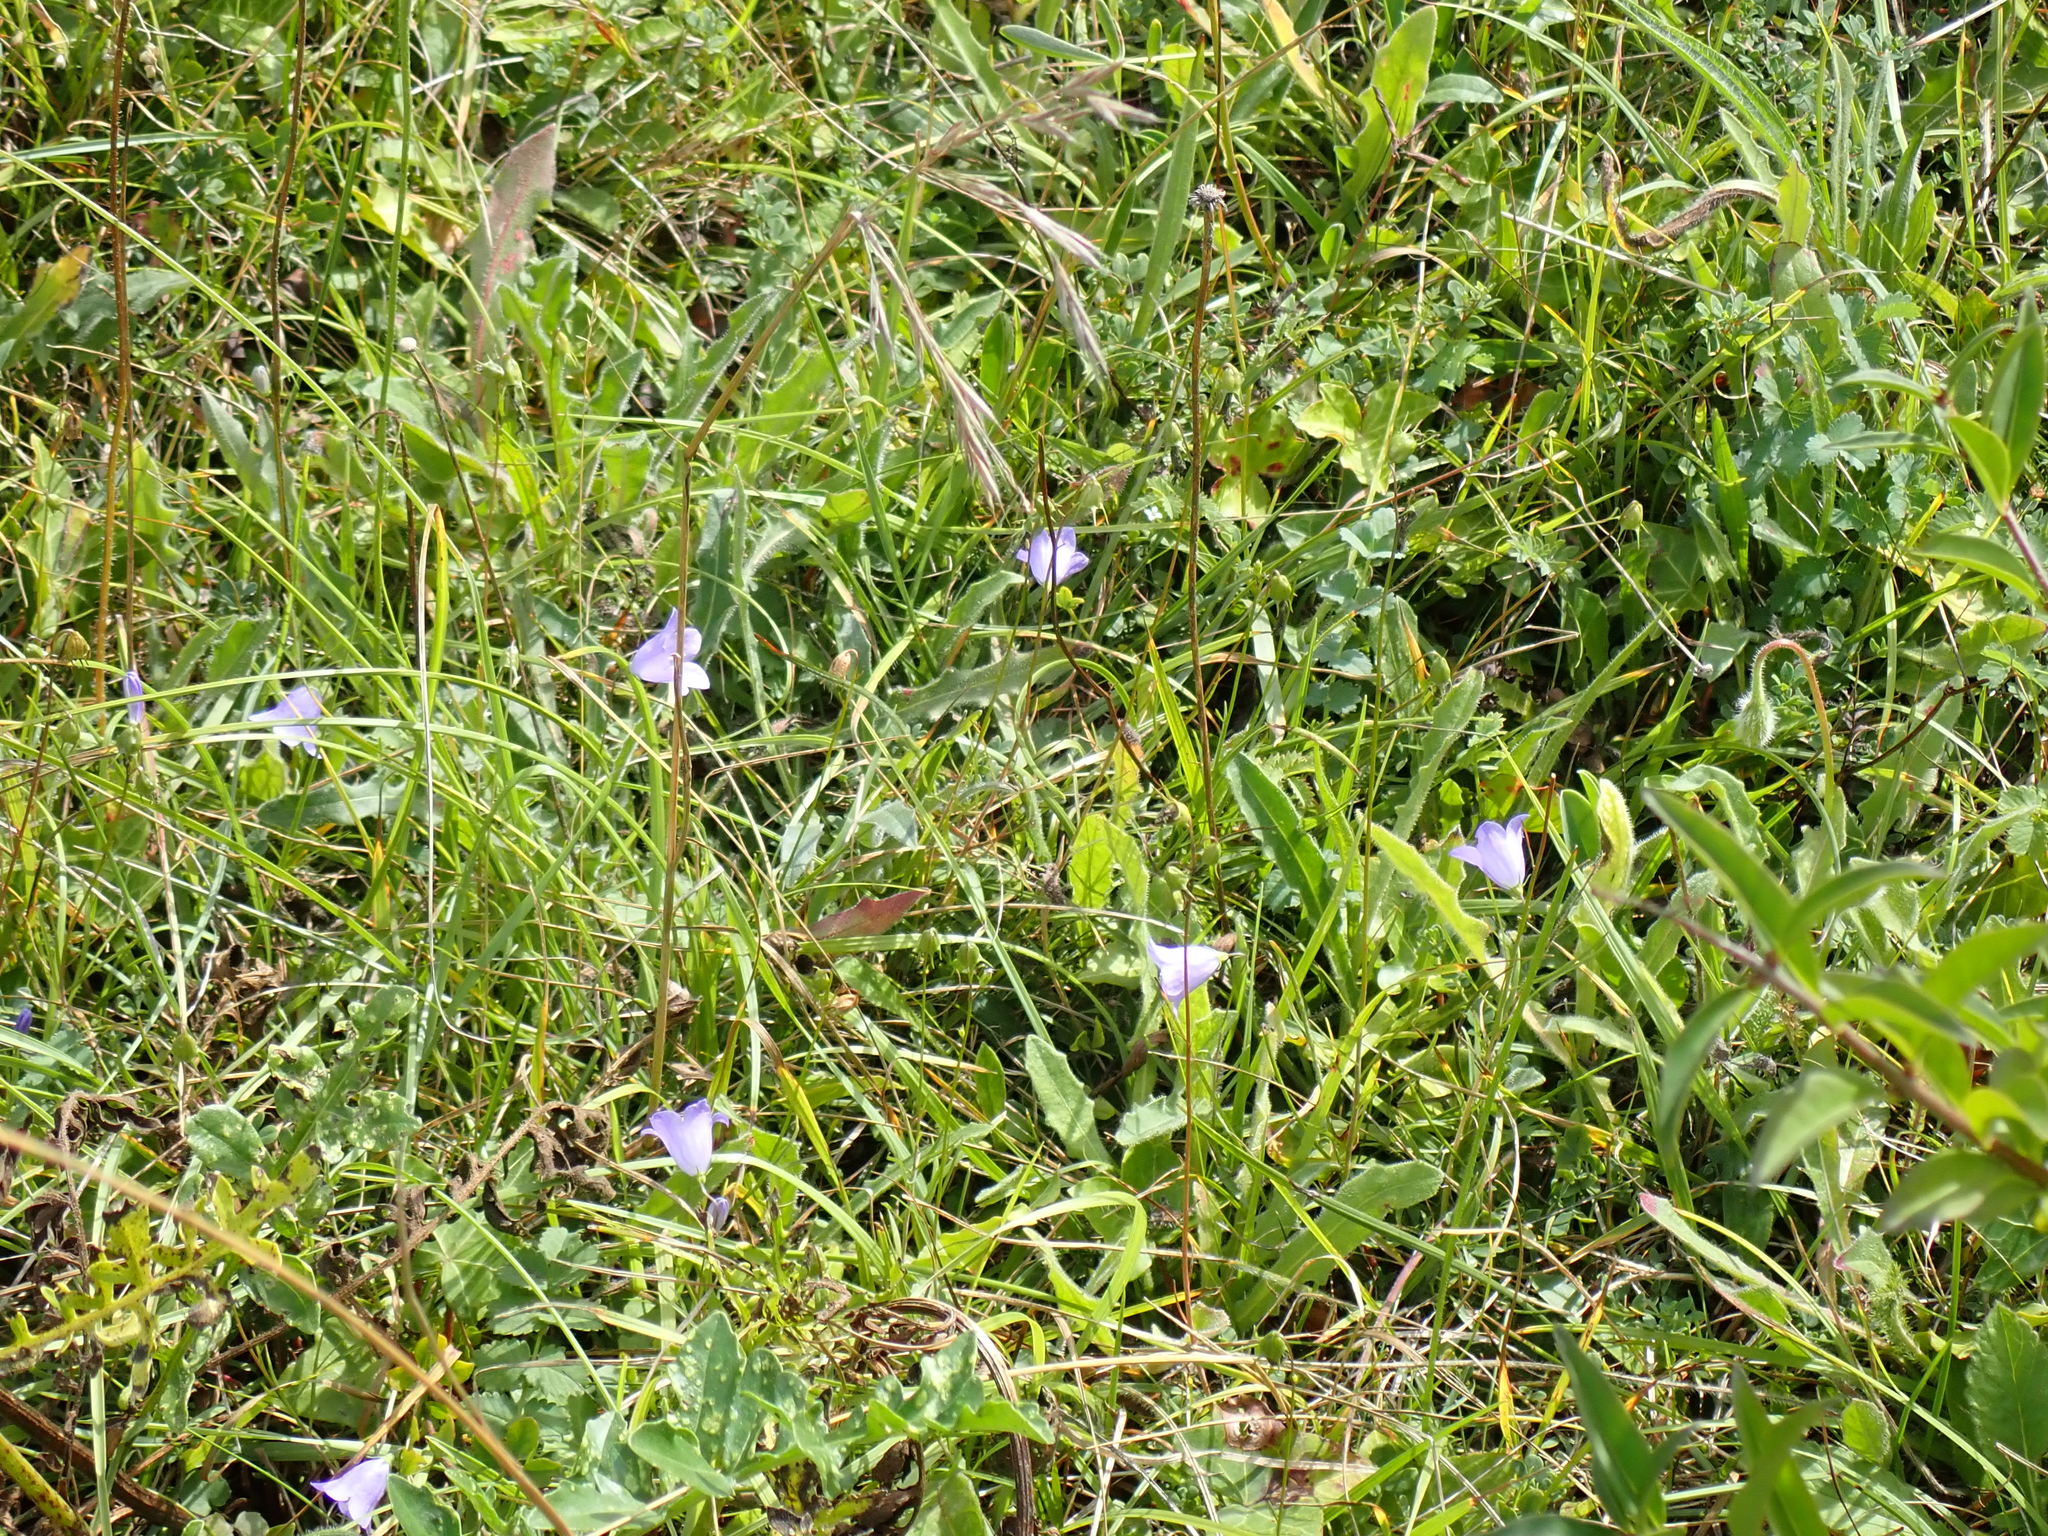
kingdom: Plantae
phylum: Tracheophyta
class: Magnoliopsida
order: Asterales
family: Campanulaceae
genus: Campanula
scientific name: Campanula rotundifolia
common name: Harebell
